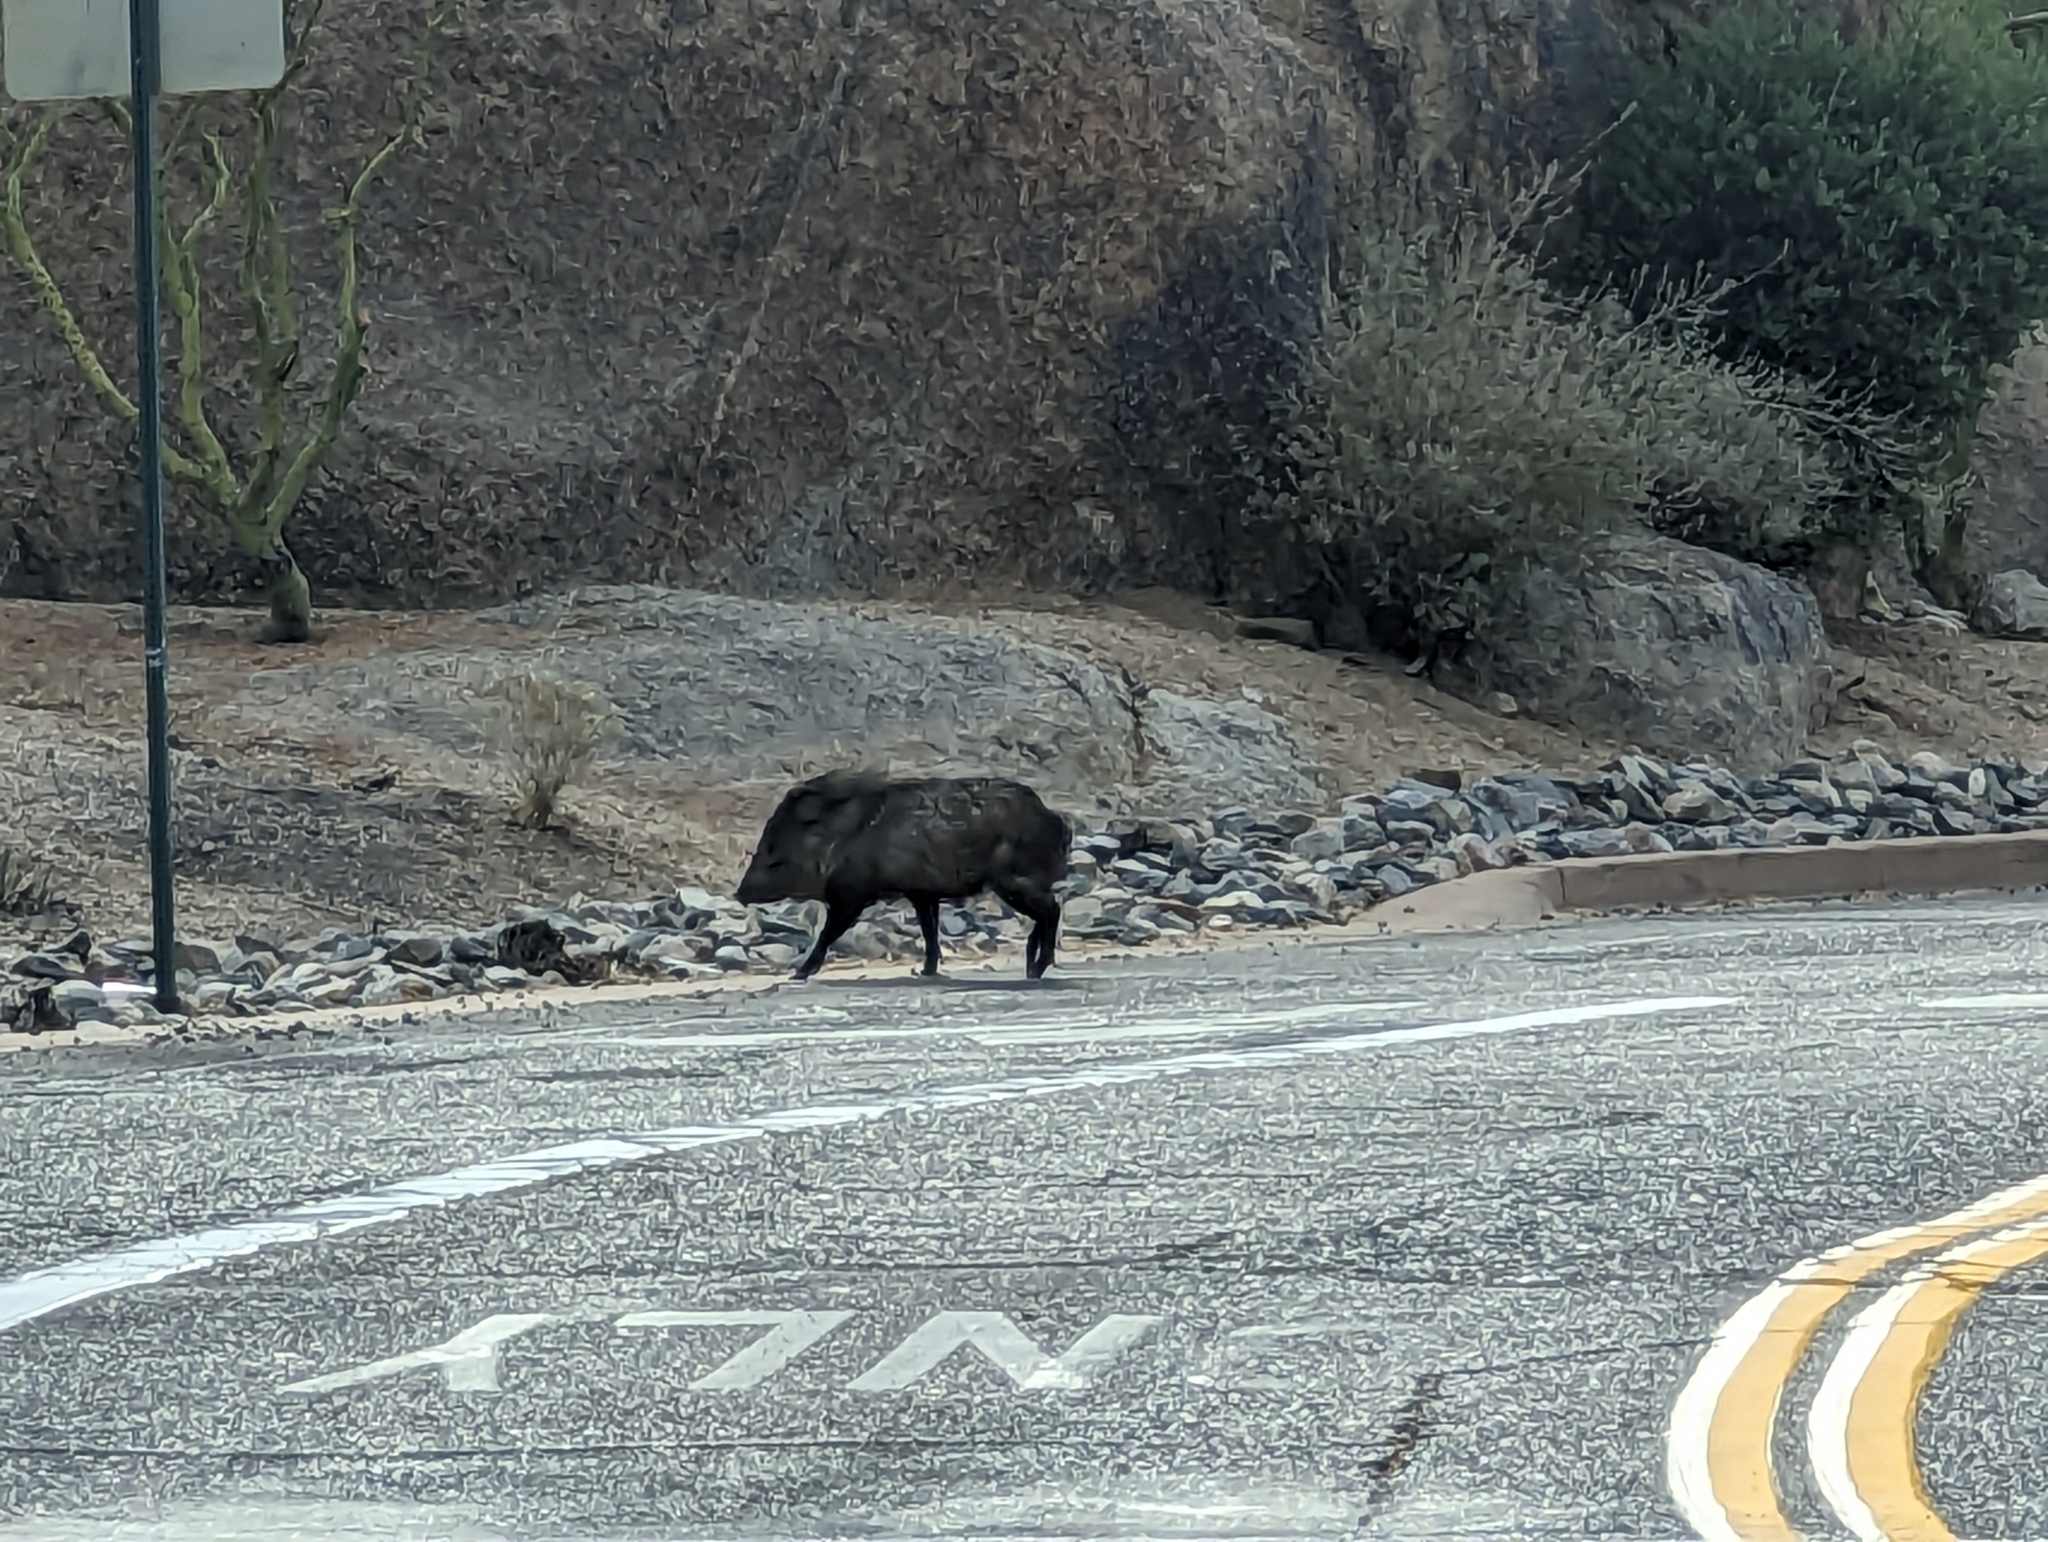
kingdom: Animalia
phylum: Chordata
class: Mammalia
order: Artiodactyla
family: Tayassuidae
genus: Pecari
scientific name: Pecari tajacu
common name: Collared peccary
